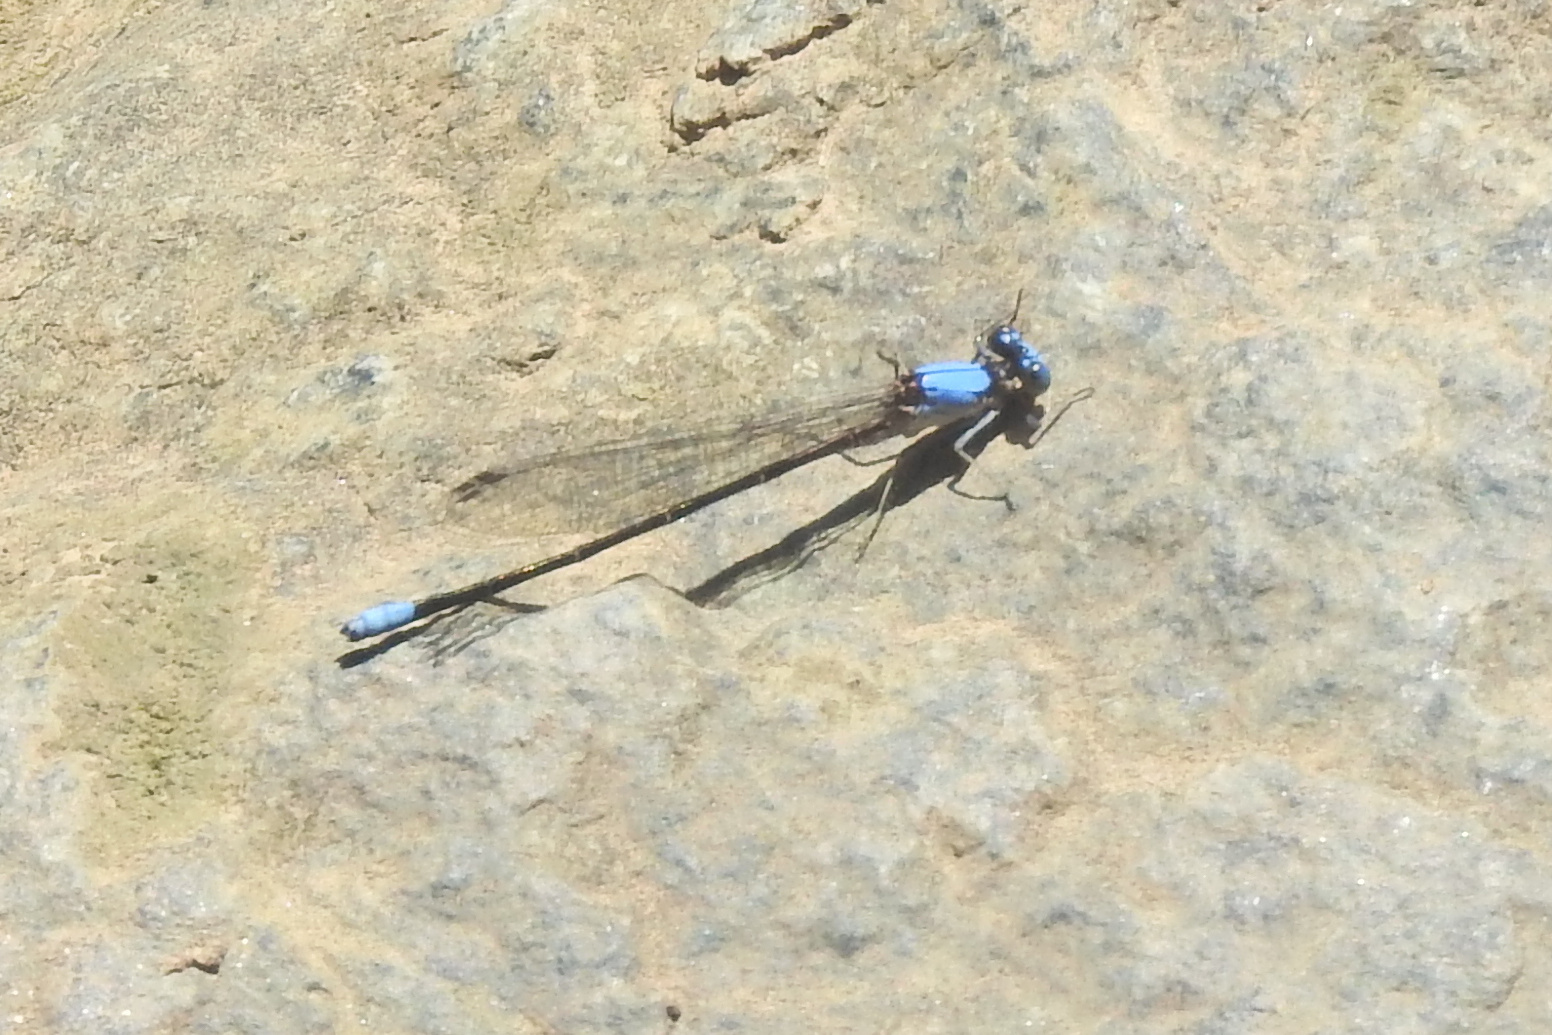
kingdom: Animalia
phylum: Arthropoda
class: Insecta
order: Odonata
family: Coenagrionidae
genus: Argia
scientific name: Argia apicalis
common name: Blue-fronted dancer
